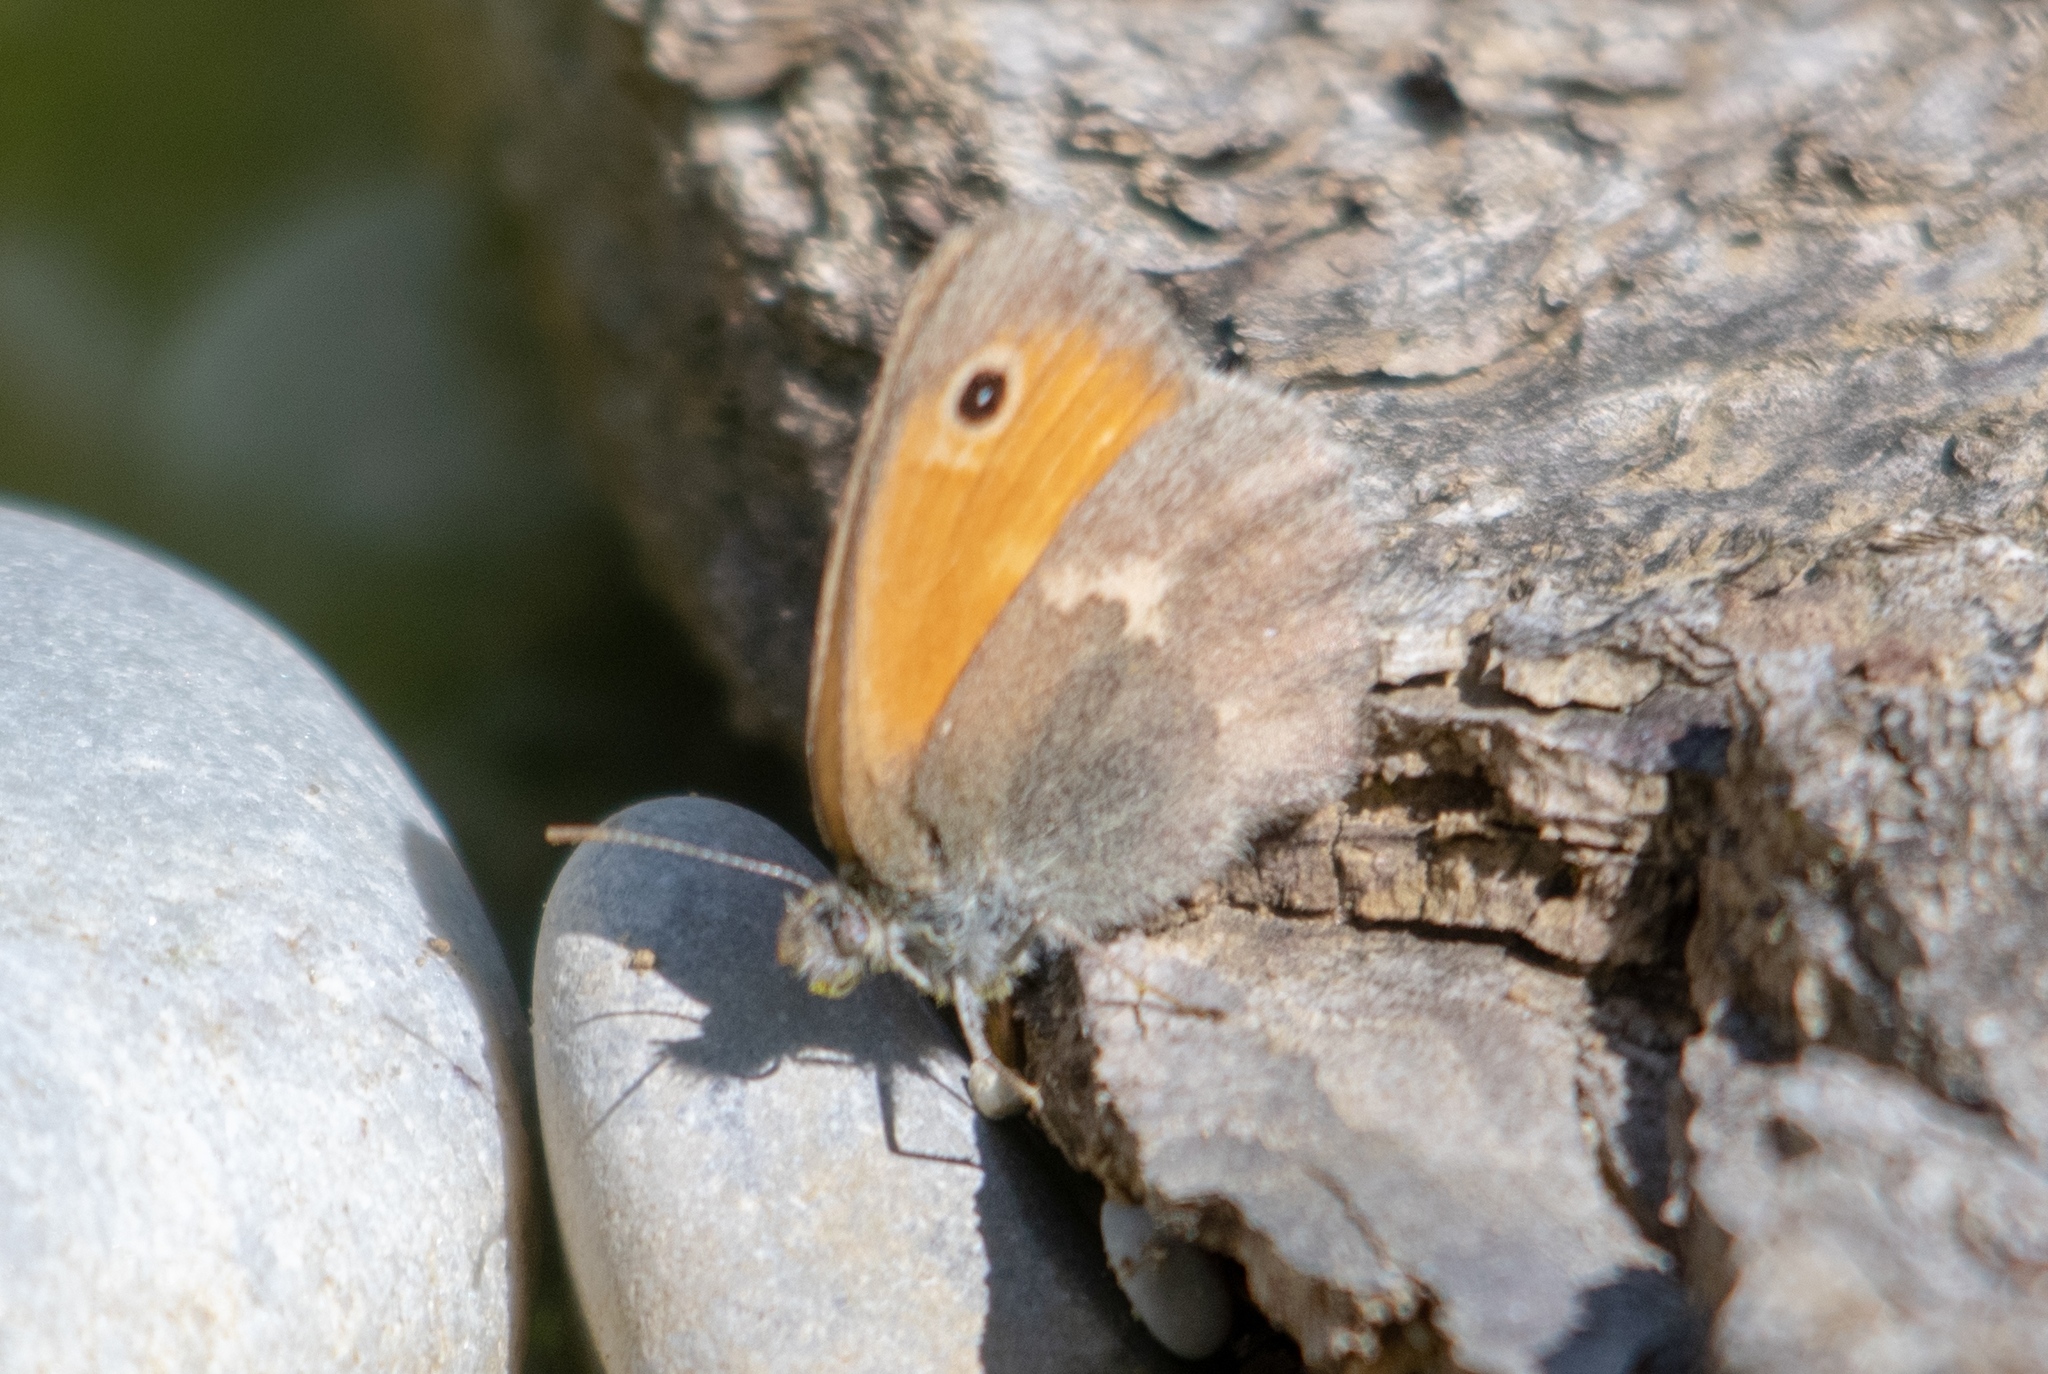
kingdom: Animalia
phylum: Arthropoda
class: Insecta
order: Lepidoptera
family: Nymphalidae
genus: Coenonympha
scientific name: Coenonympha pamphilus
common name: Small heath
